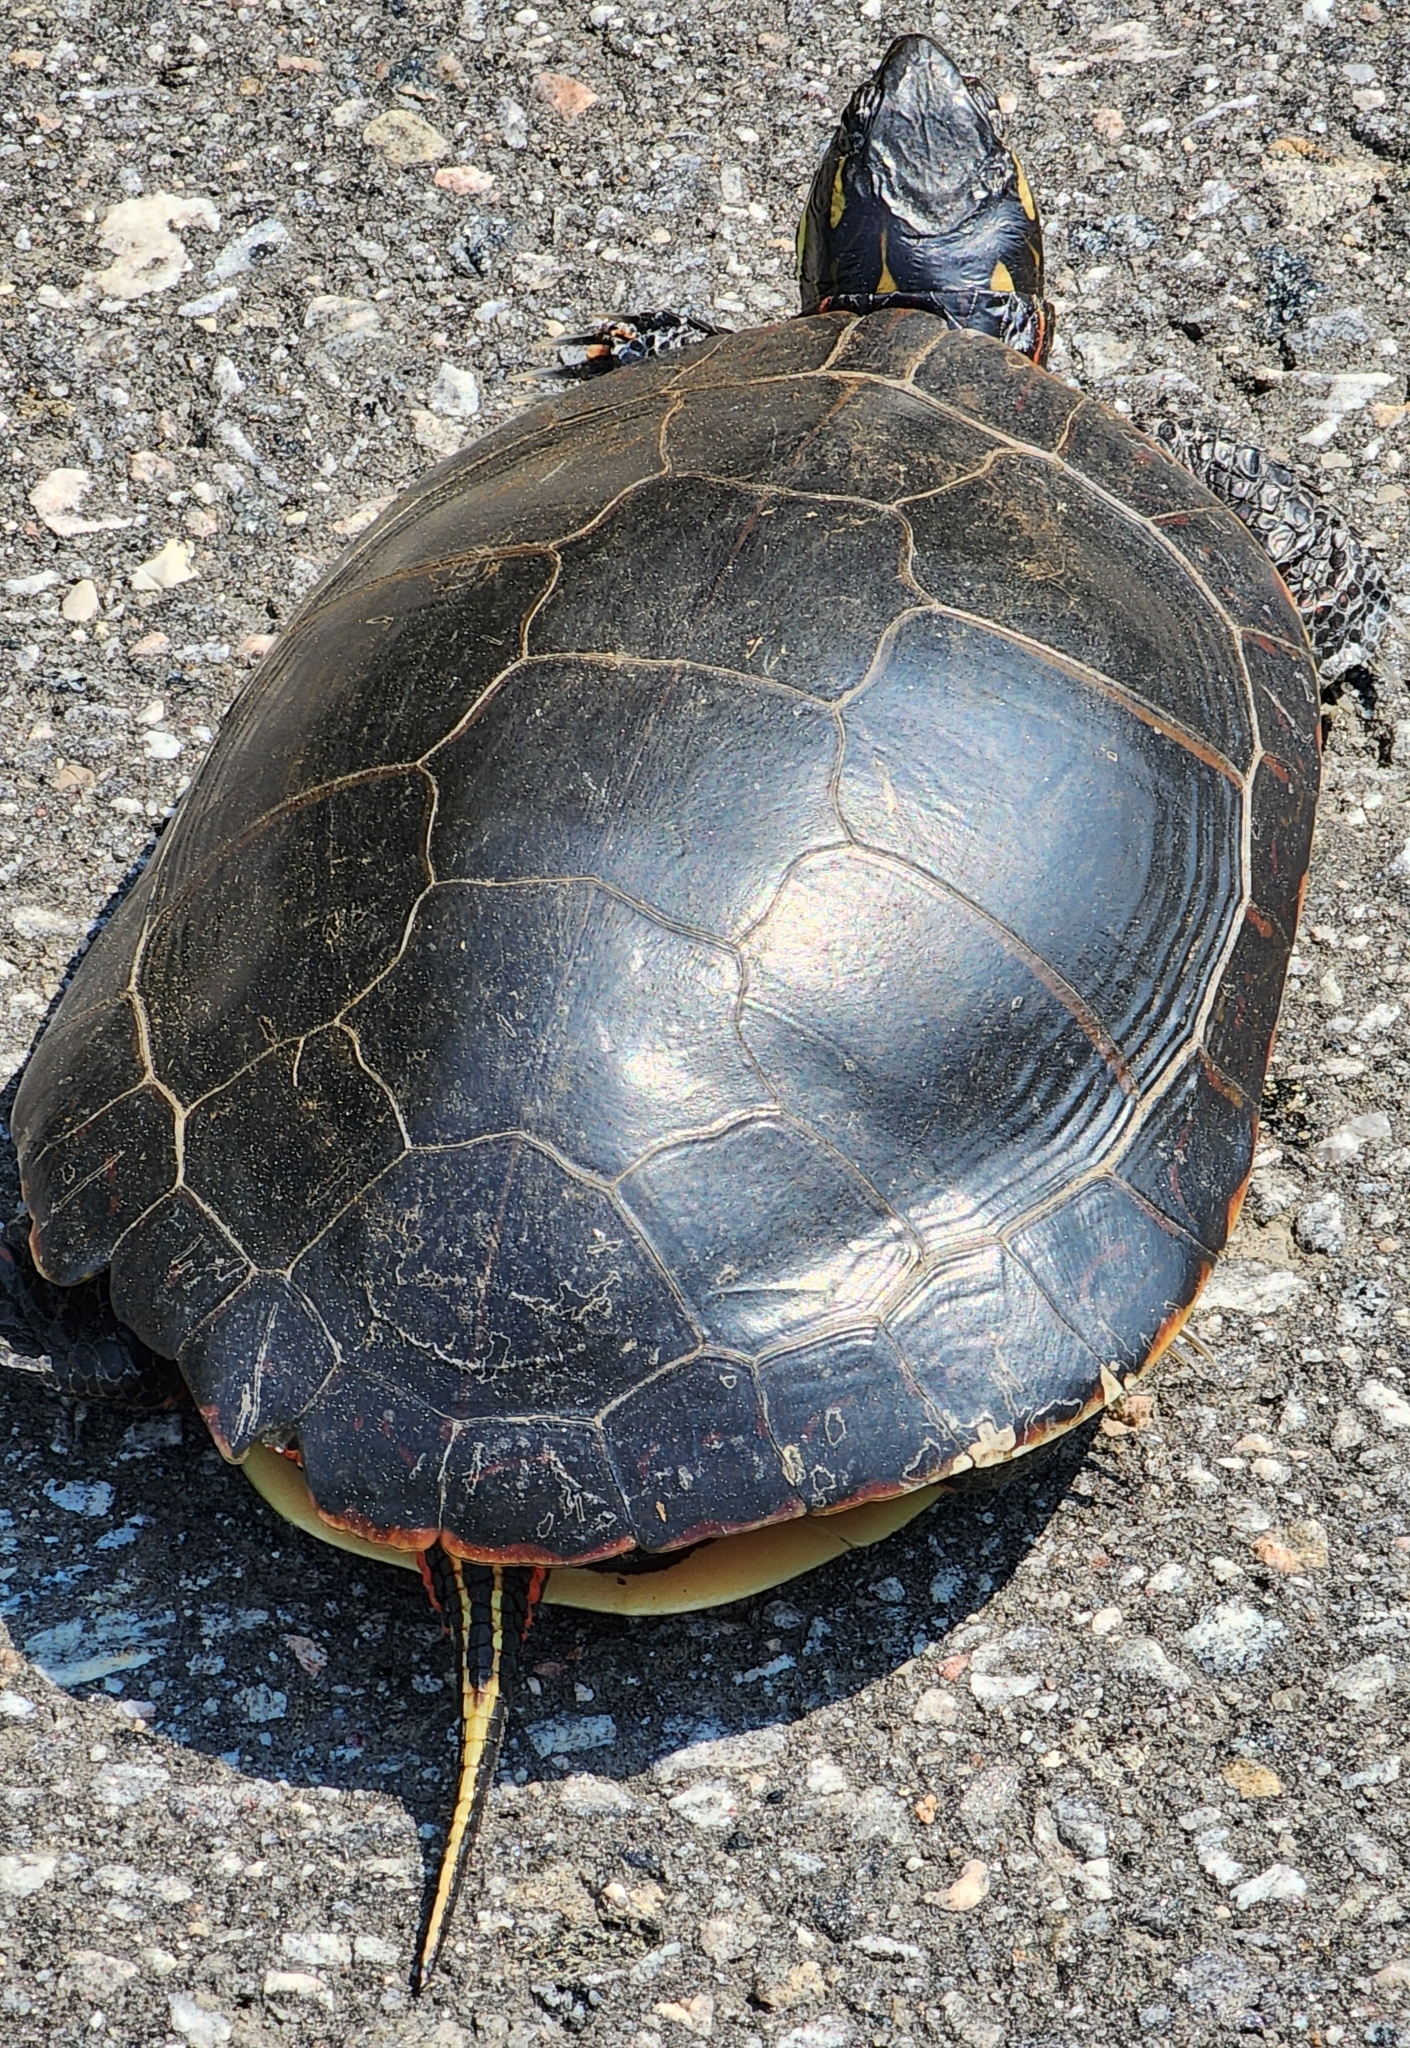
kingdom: Animalia
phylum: Chordata
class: Testudines
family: Emydidae
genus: Chrysemys
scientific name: Chrysemys picta
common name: Painted turtle
